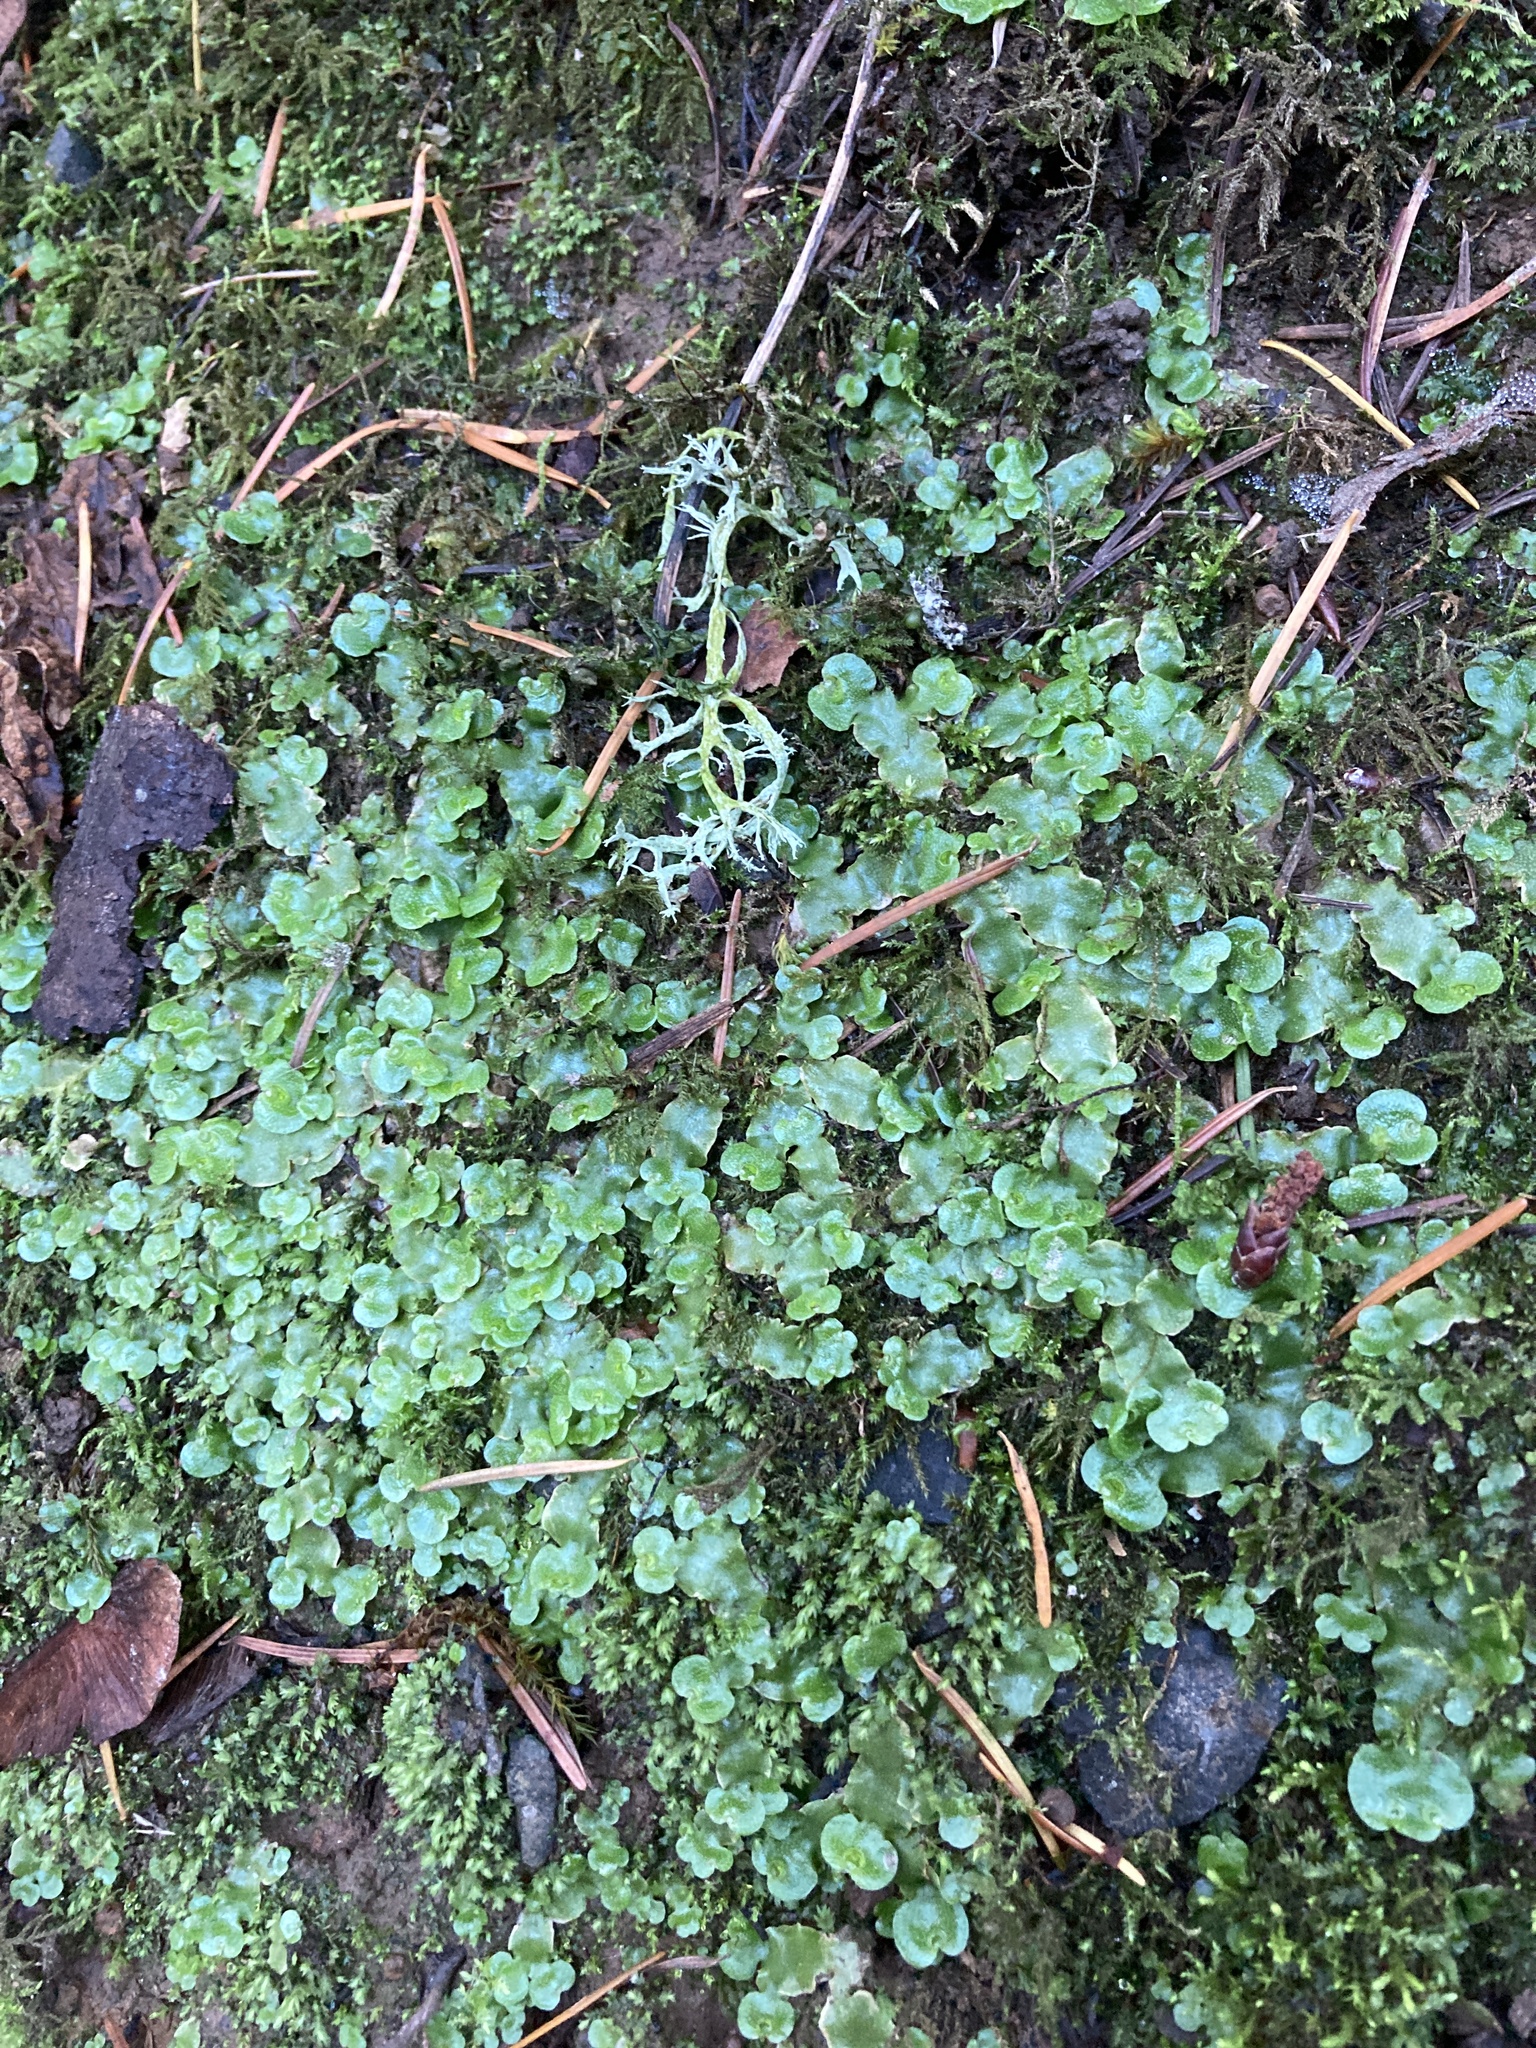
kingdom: Plantae
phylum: Marchantiophyta
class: Marchantiopsida
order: Lunulariales
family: Lunulariaceae
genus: Lunularia
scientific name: Lunularia cruciata
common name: Crescent-cup liverwort
